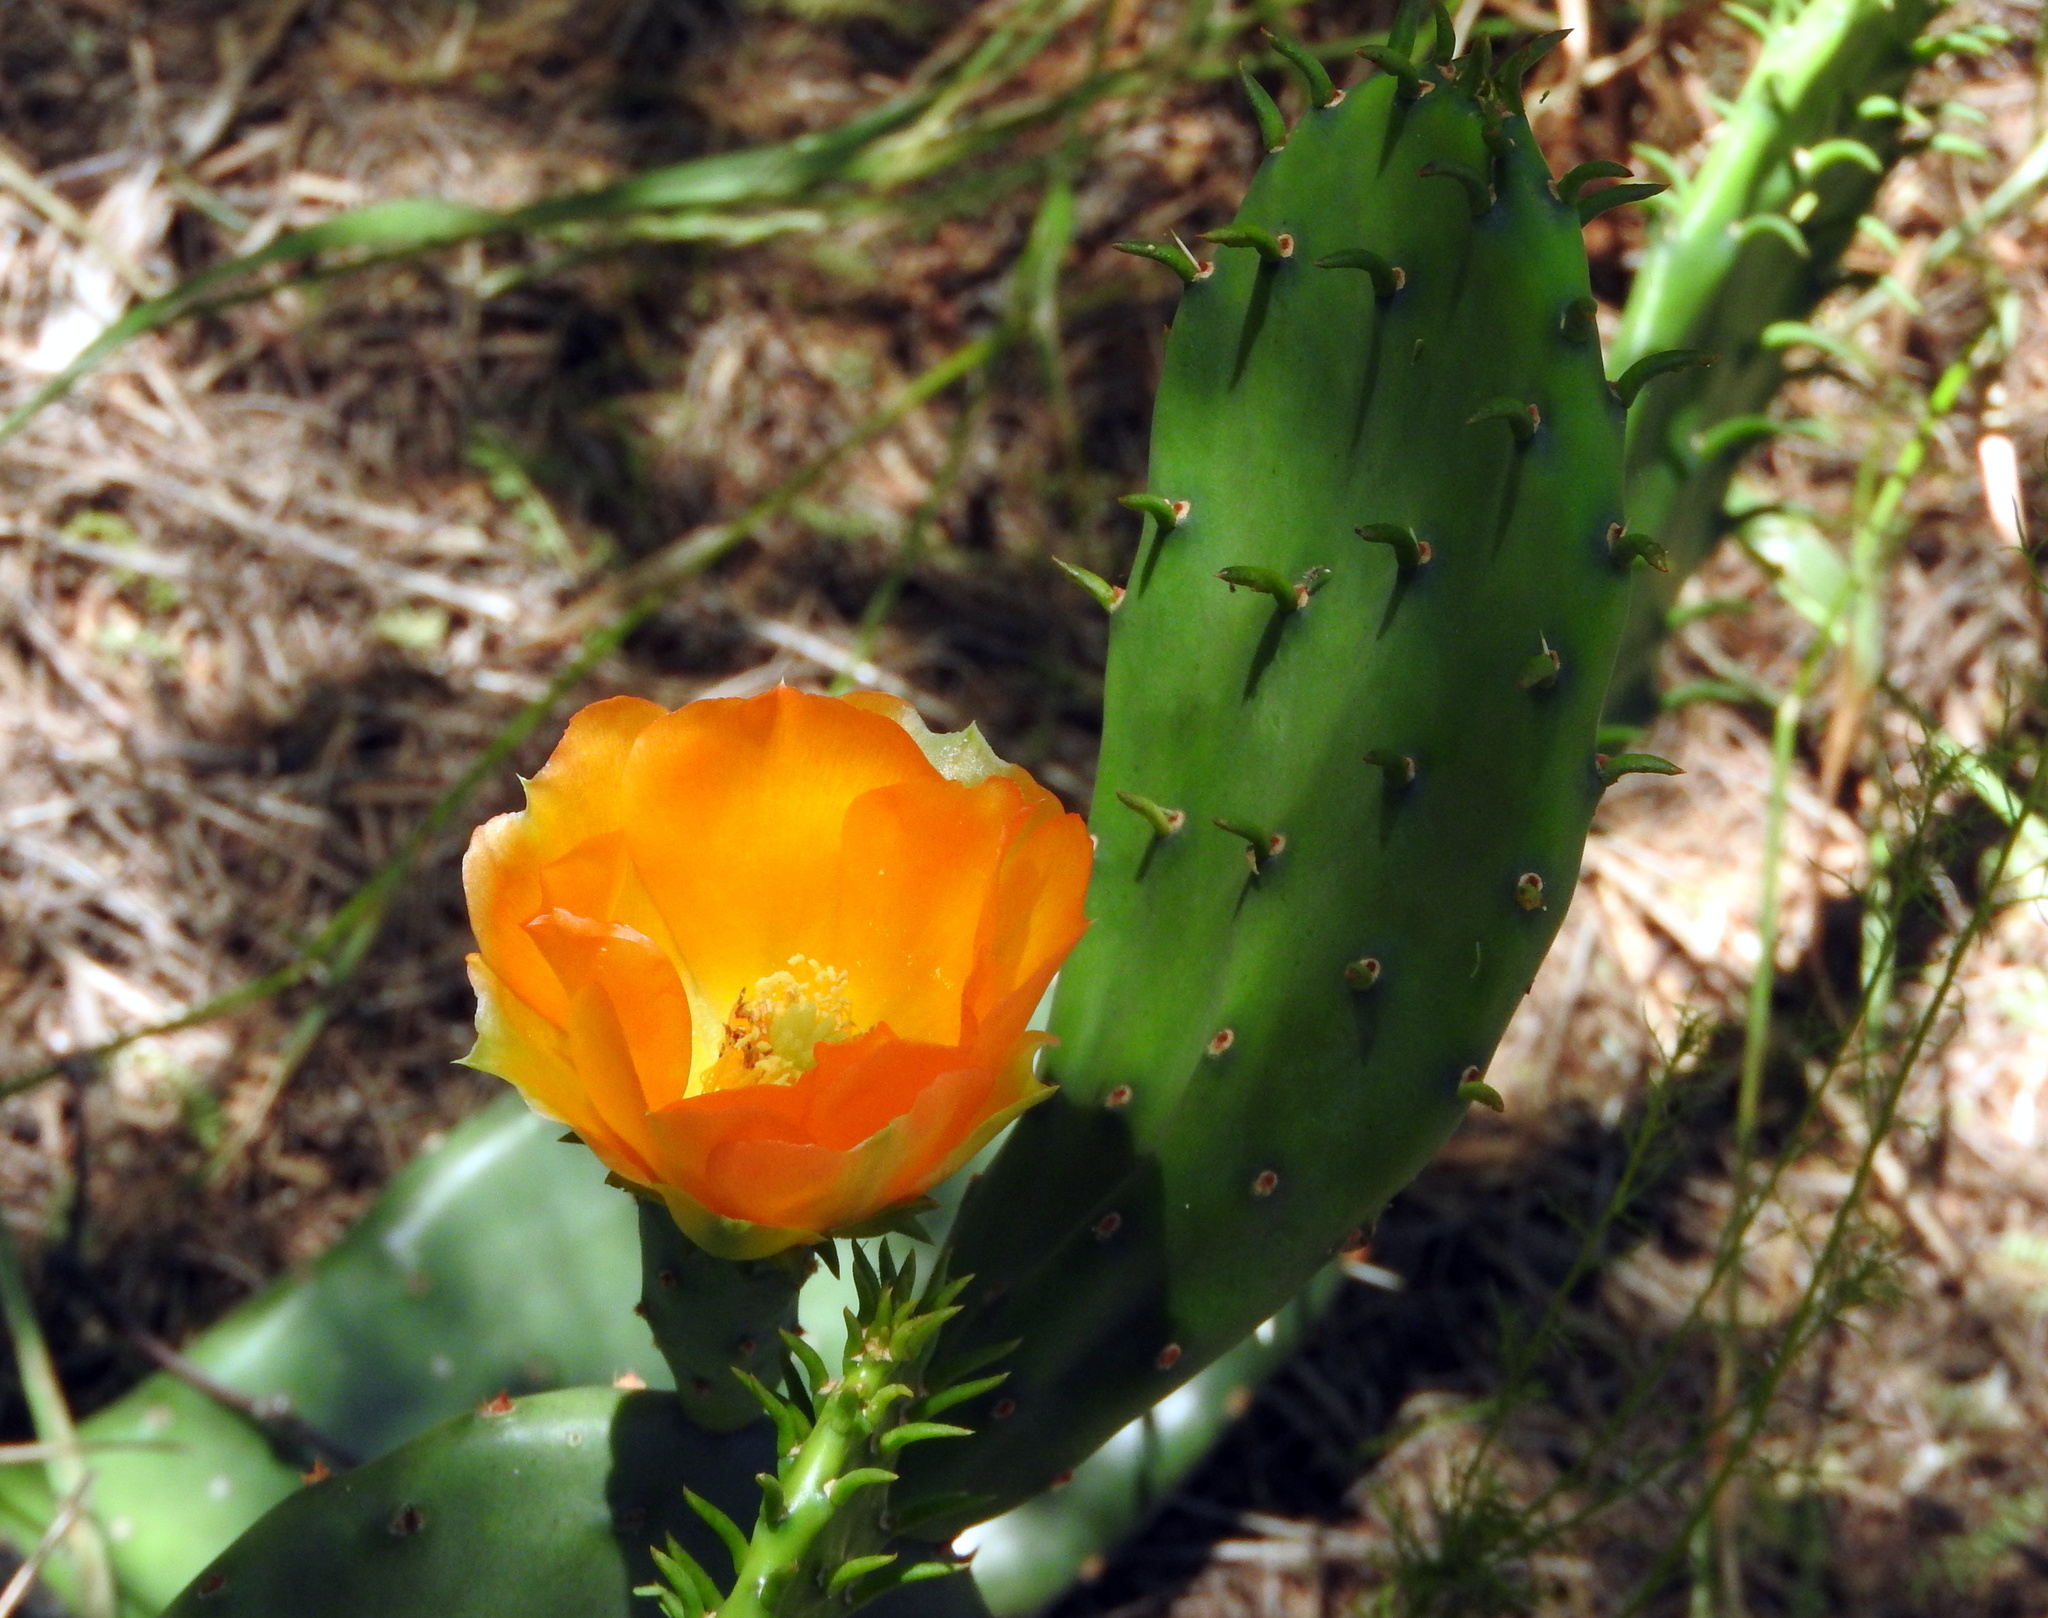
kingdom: Plantae
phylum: Tracheophyta
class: Magnoliopsida
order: Caryophyllales
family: Cactaceae
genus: Opuntia
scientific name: Opuntia megapotamica
